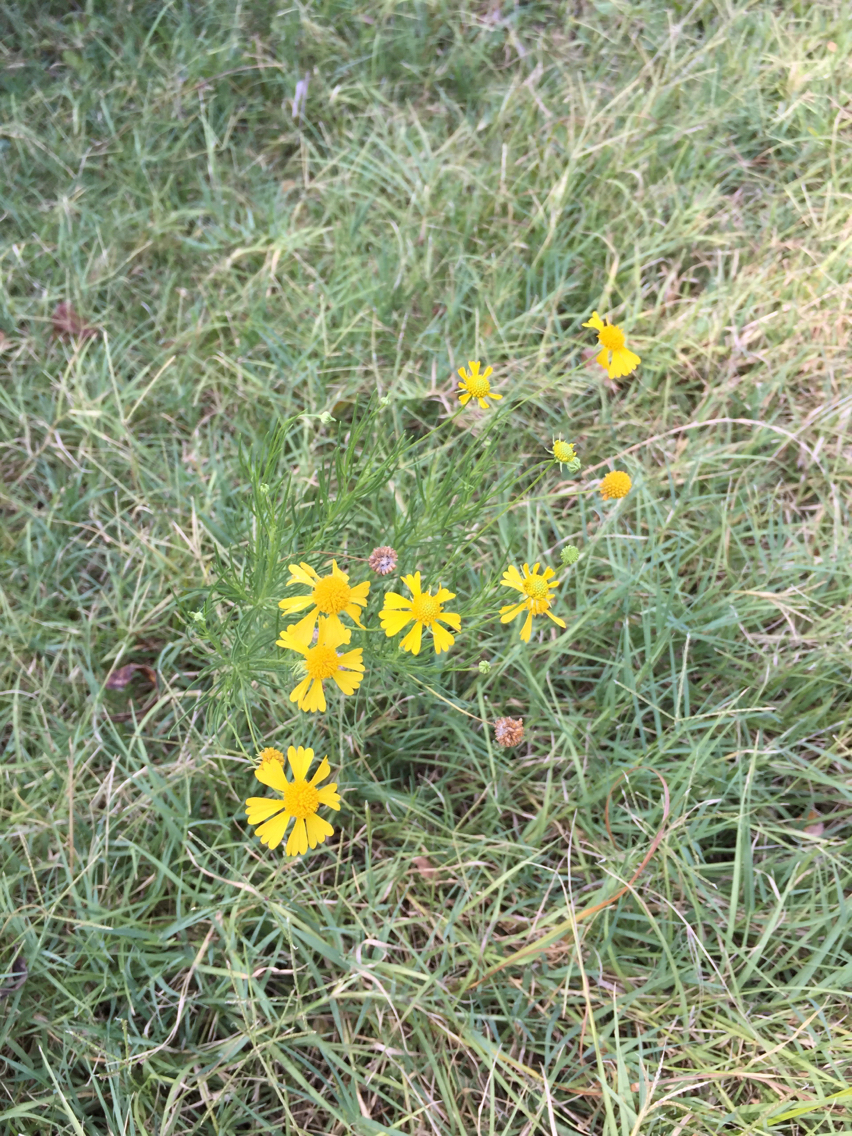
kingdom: Plantae
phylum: Tracheophyta
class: Magnoliopsida
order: Asterales
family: Asteraceae
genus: Helenium
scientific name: Helenium amarum
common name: Bitter sneezeweed
